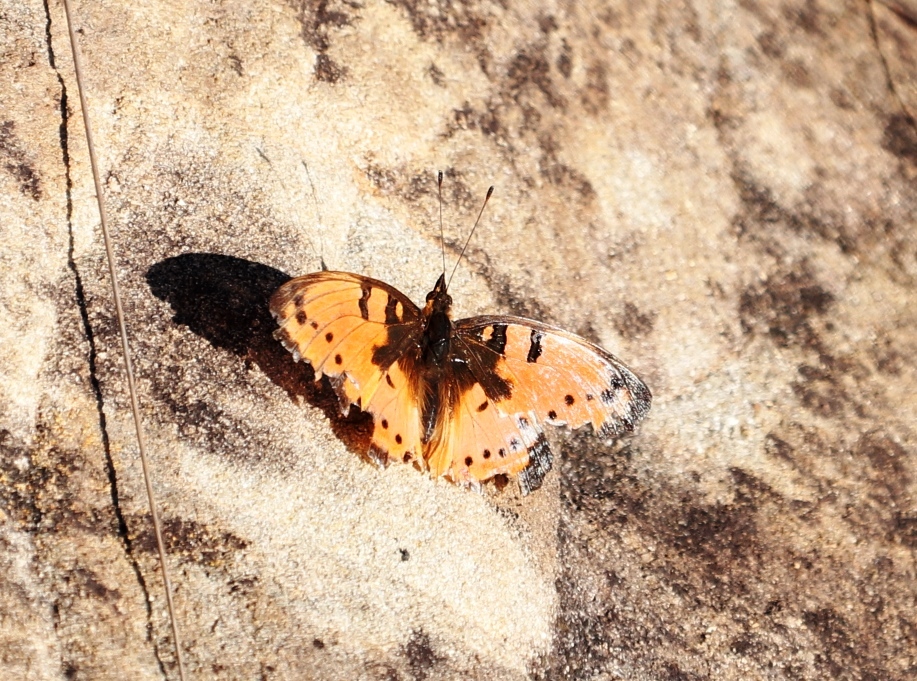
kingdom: Animalia
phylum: Arthropoda
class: Insecta
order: Lepidoptera
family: Nymphalidae
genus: Precis
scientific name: Precis octavia
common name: Gaudy commodore
